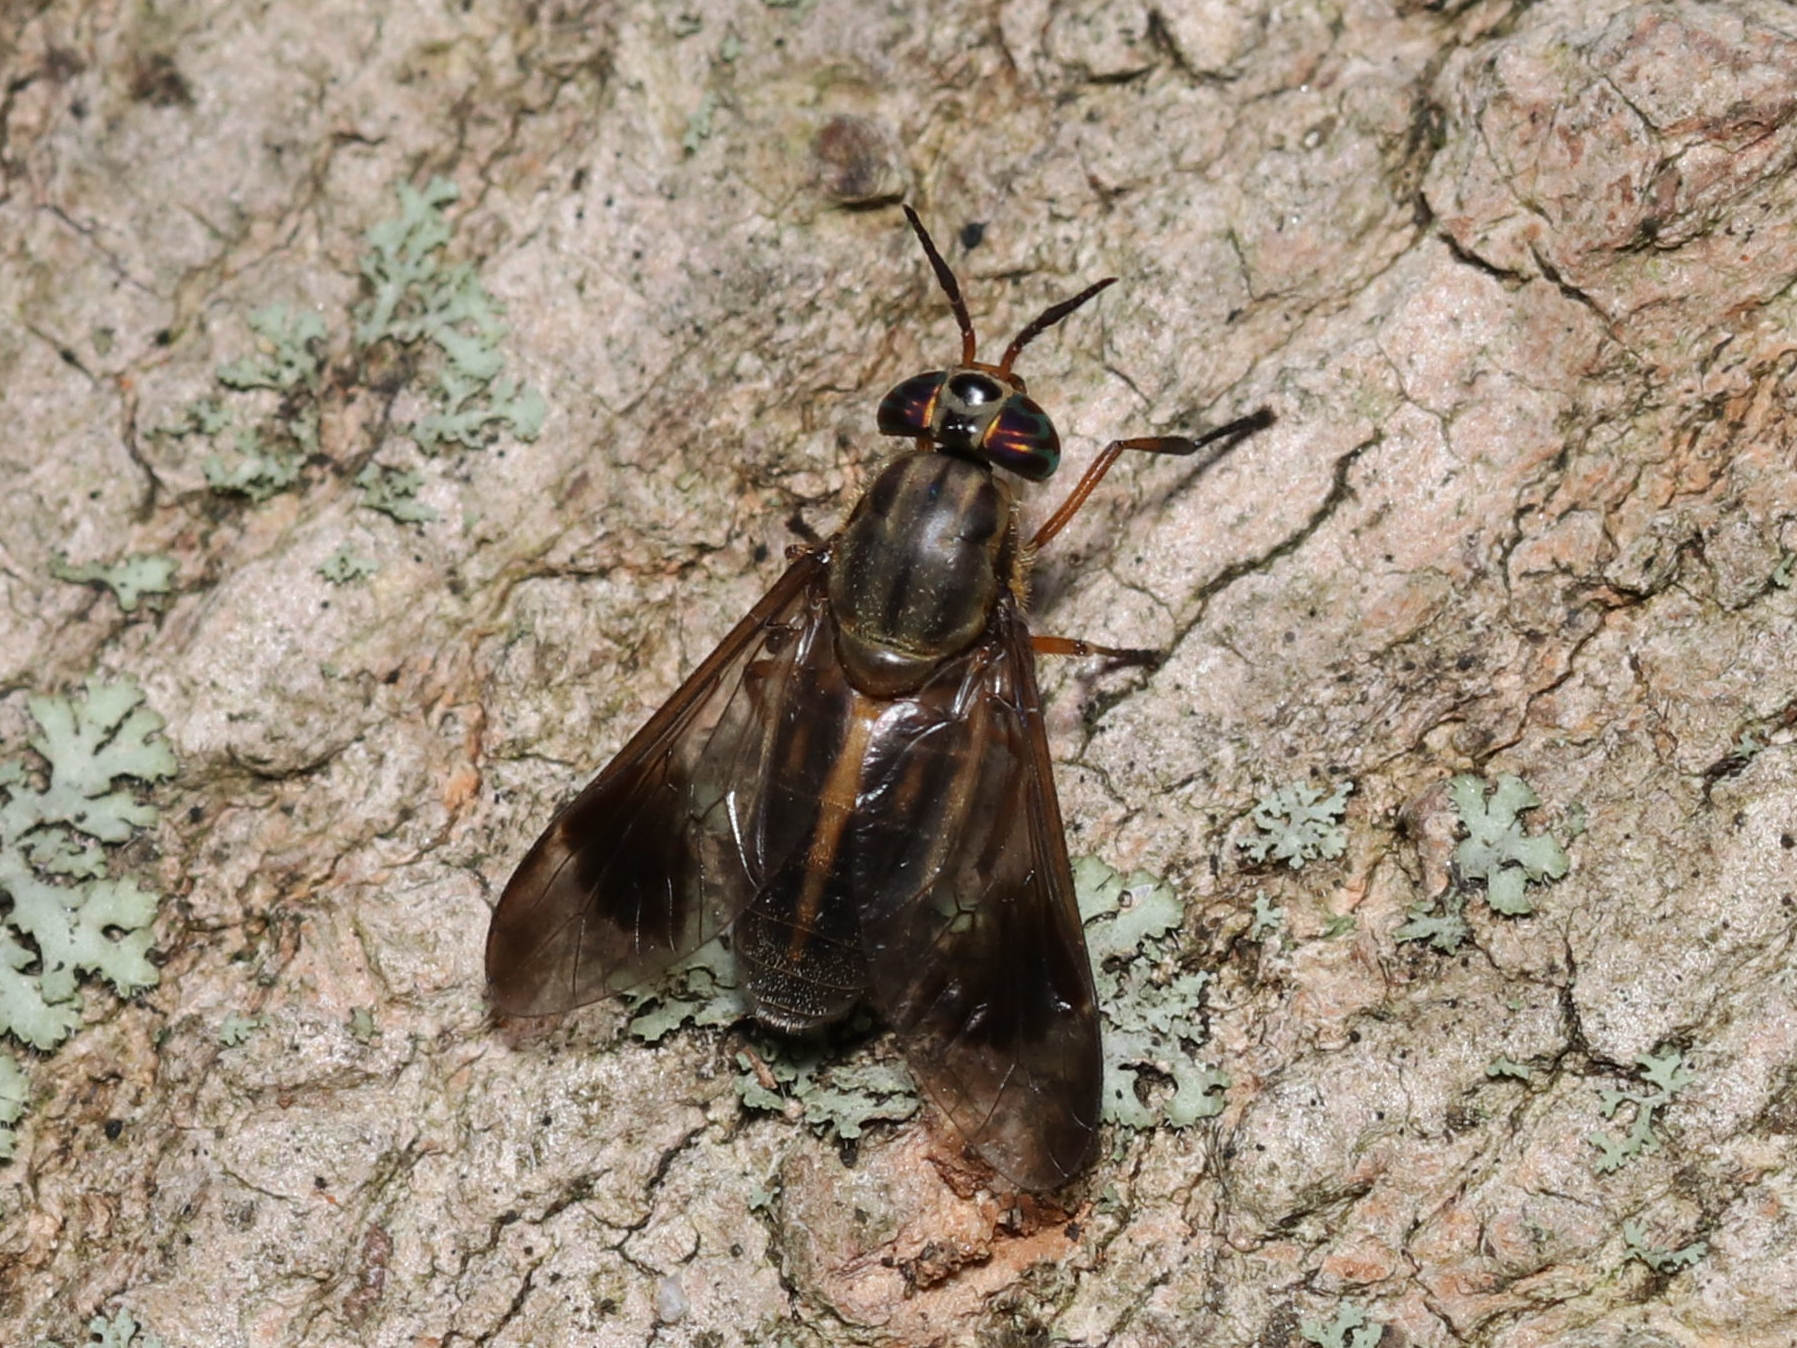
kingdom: Animalia
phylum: Arthropoda
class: Insecta
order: Diptera
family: Tabanidae
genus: Chrysops
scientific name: Chrysops univittatus
